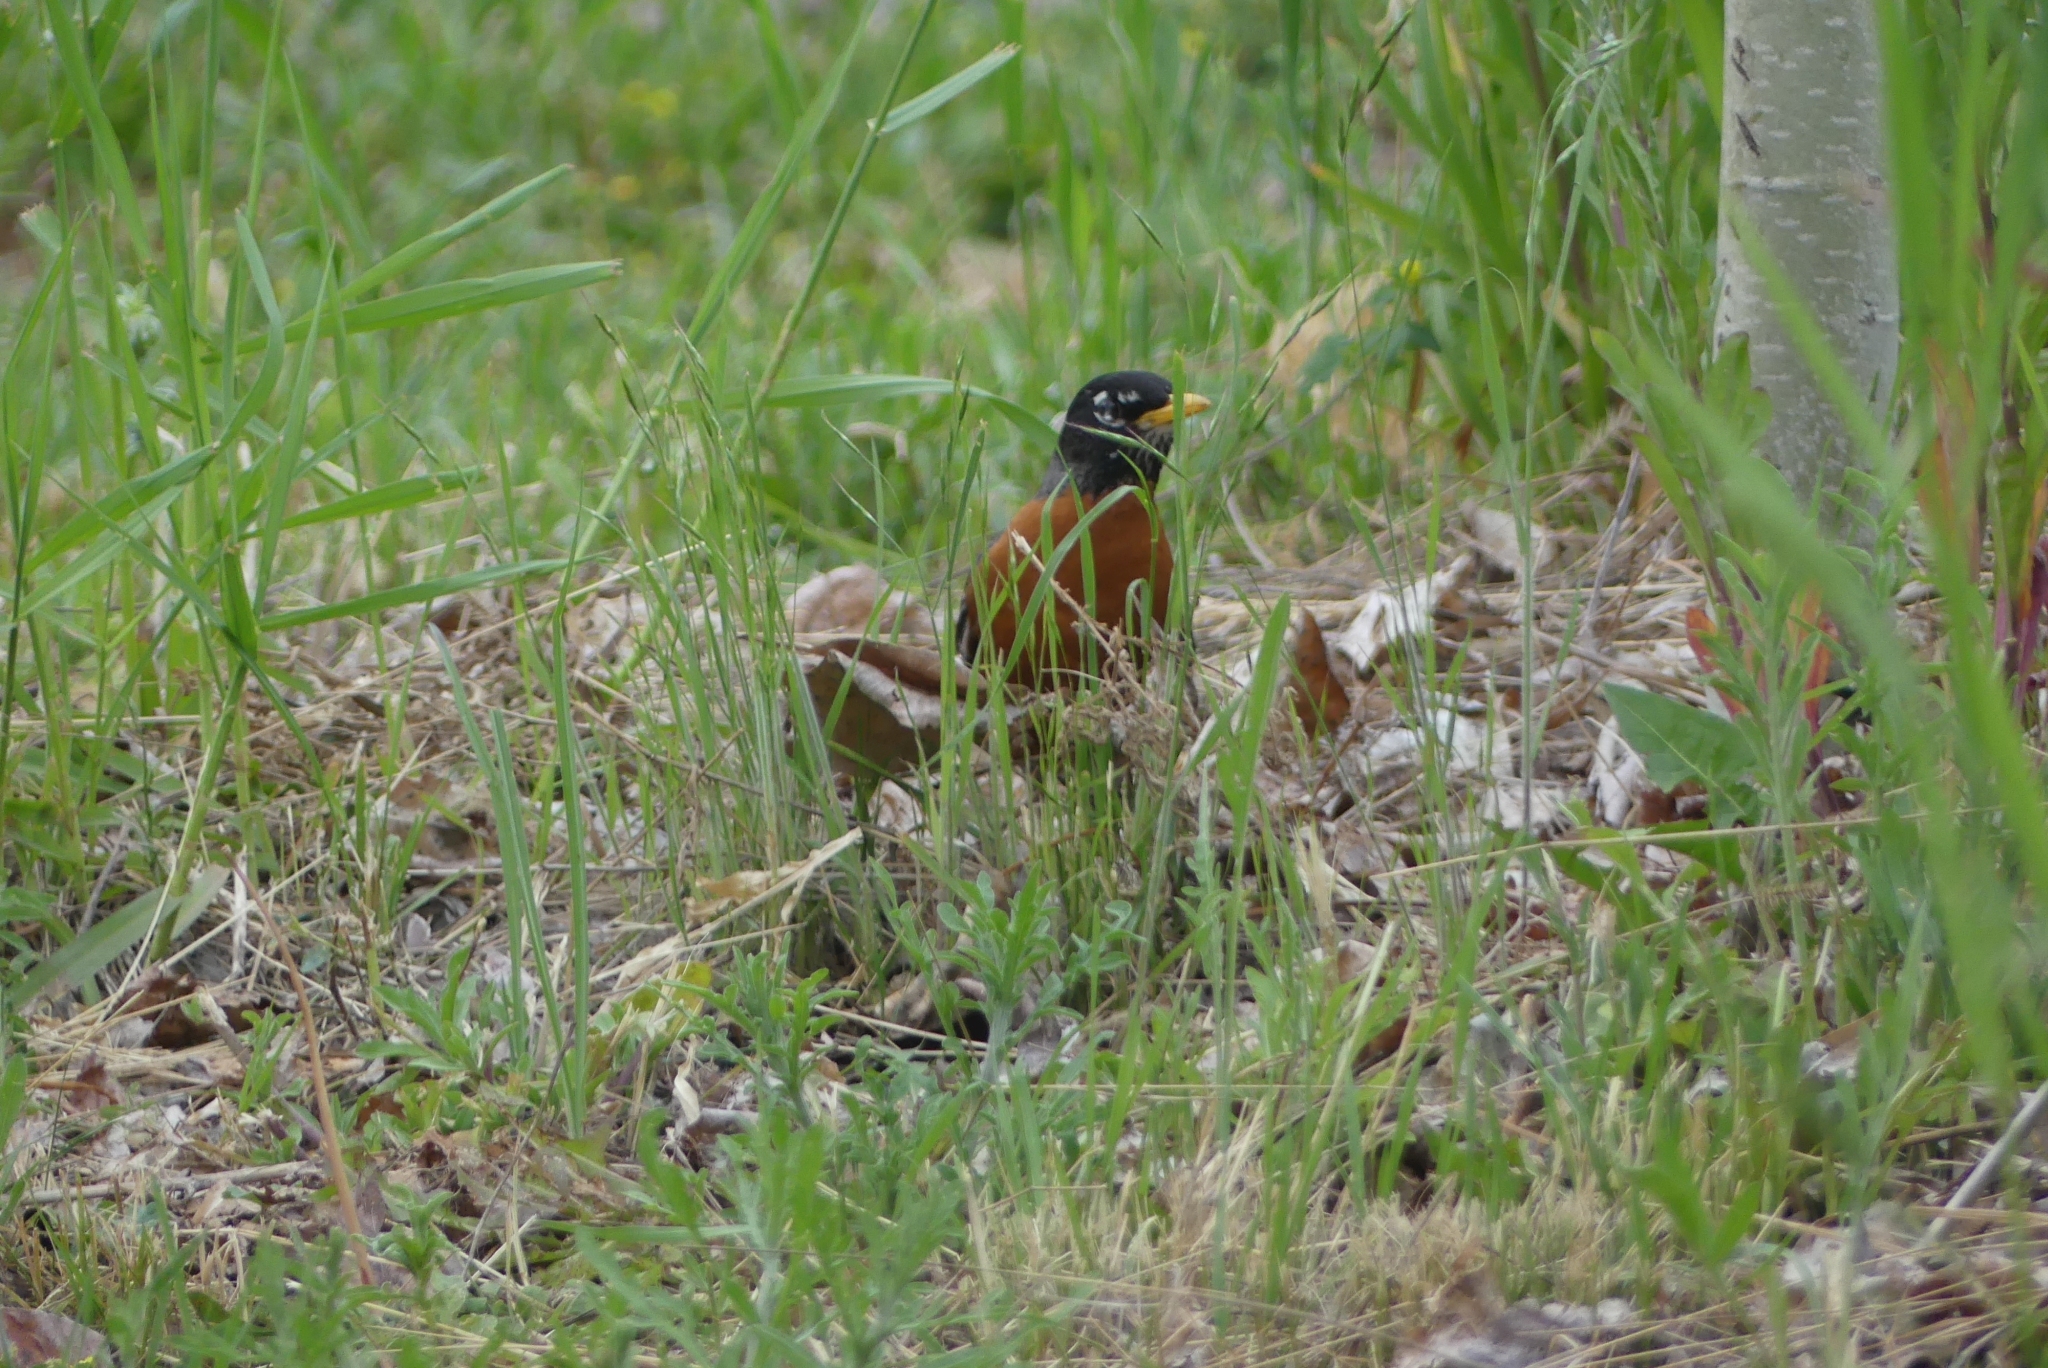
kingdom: Animalia
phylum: Chordata
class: Aves
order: Passeriformes
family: Turdidae
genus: Turdus
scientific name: Turdus migratorius
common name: American robin
